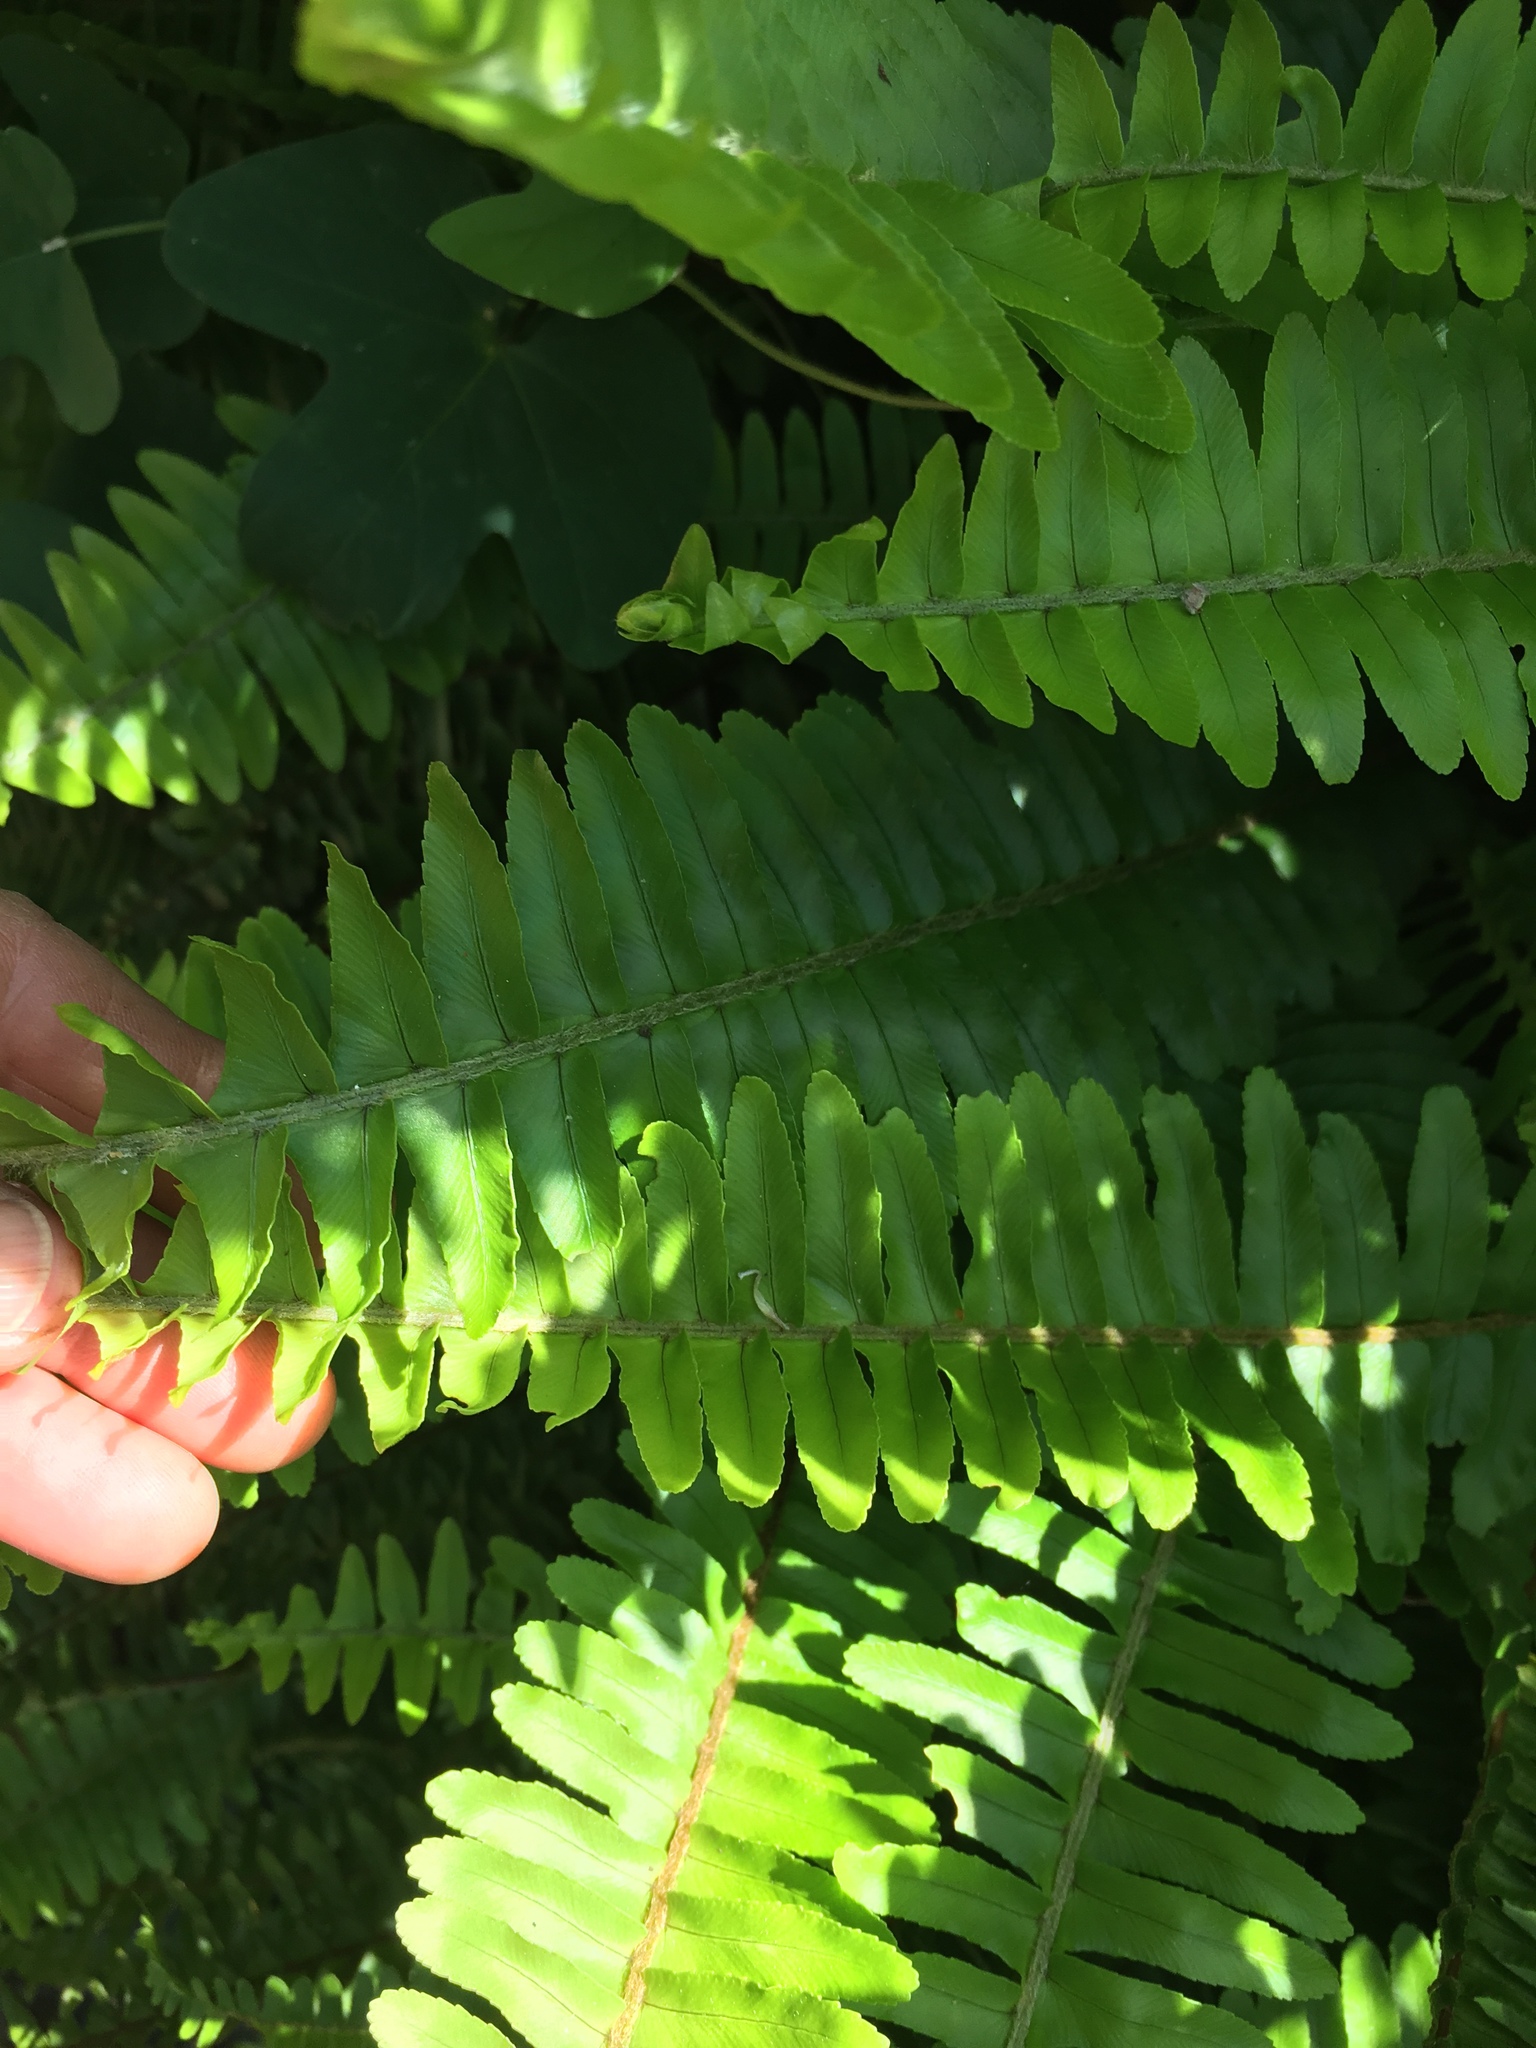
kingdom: Plantae
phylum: Tracheophyta
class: Polypodiopsida
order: Polypodiales
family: Nephrolepidaceae
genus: Nephrolepis
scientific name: Nephrolepis cordifolia
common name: Narrow swordfern
